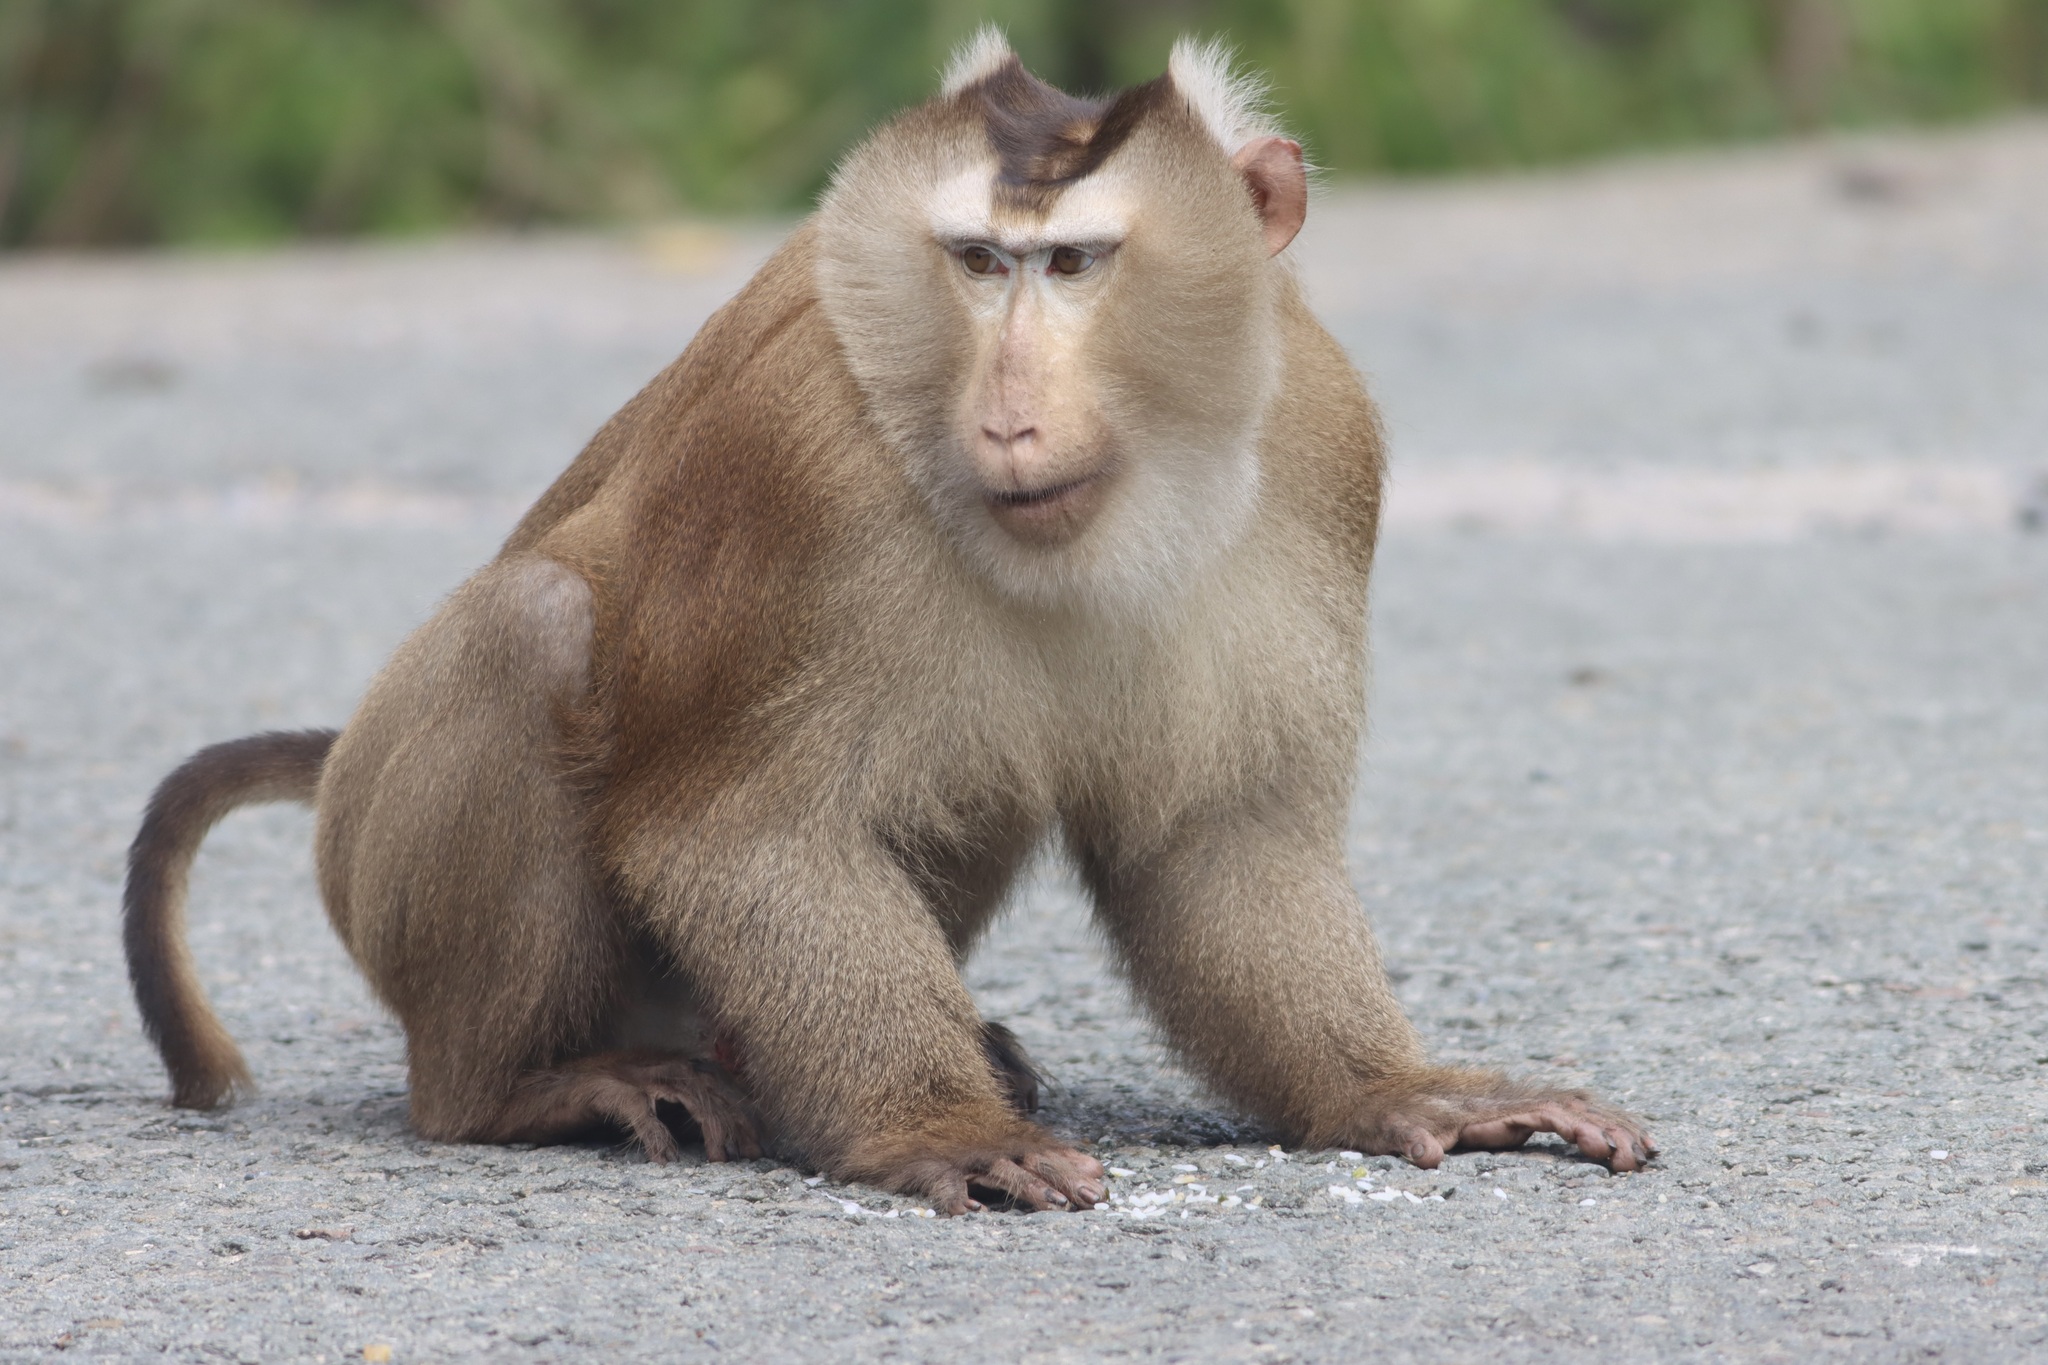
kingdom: Animalia
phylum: Chordata
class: Mammalia
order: Primates
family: Cercopithecidae
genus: Macaca
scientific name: Macaca leonina
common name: Northern pig-tailed macaque
